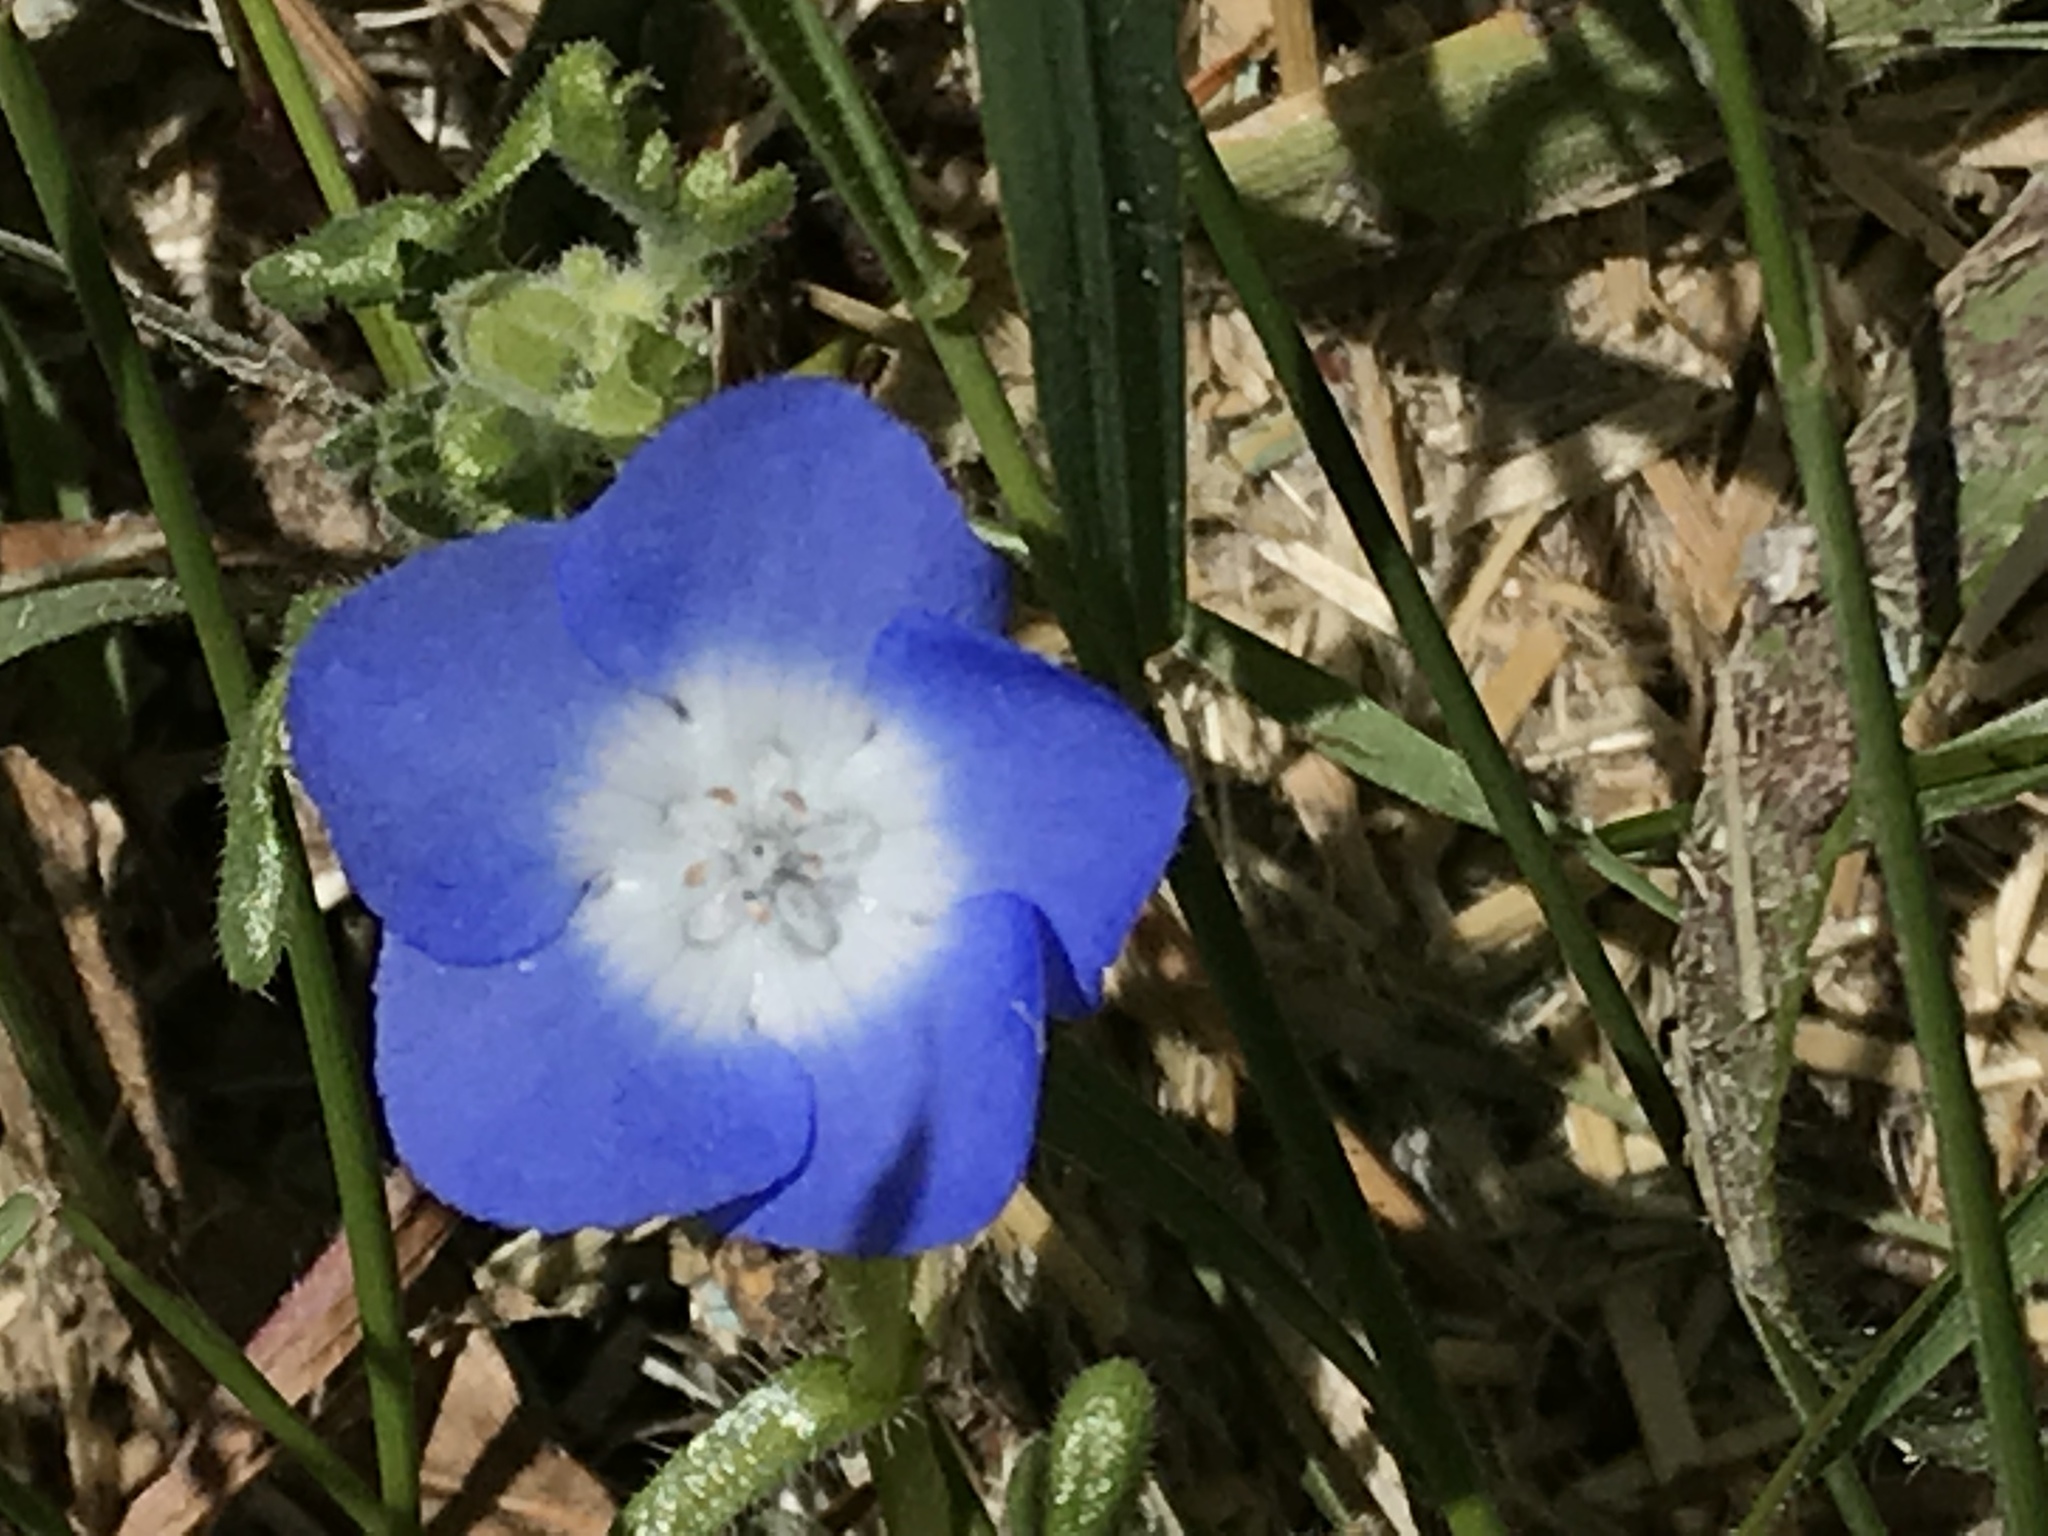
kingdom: Plantae
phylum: Tracheophyta
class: Magnoliopsida
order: Boraginales
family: Hydrophyllaceae
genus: Nemophila
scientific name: Nemophila menziesii
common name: Baby's-blue-eyes
